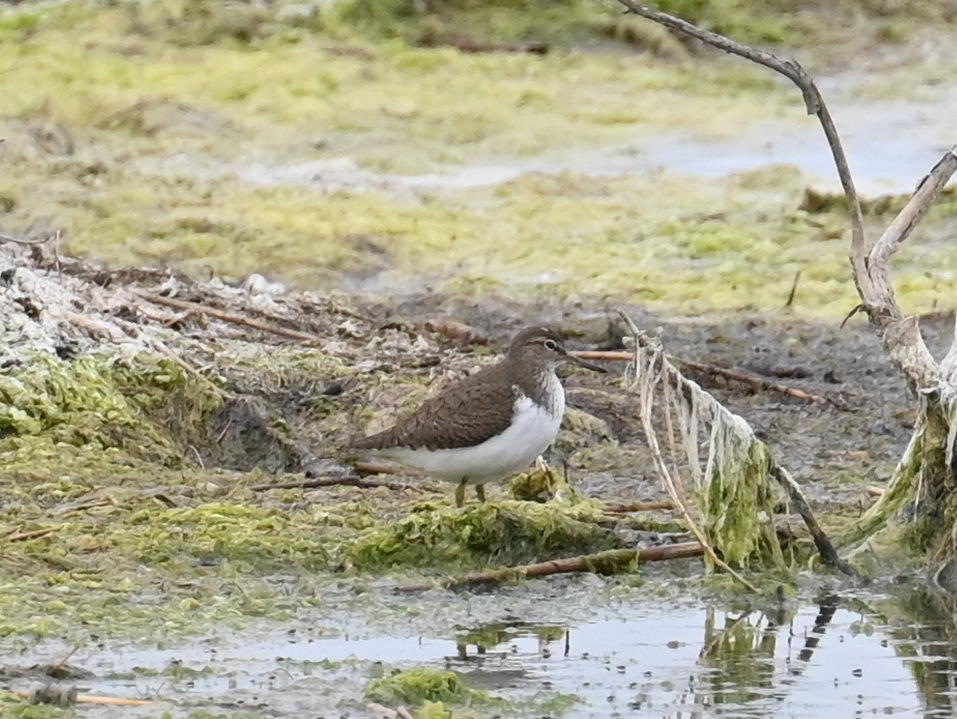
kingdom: Animalia
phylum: Chordata
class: Aves
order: Charadriiformes
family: Scolopacidae
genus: Actitis
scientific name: Actitis hypoleucos
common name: Common sandpiper
